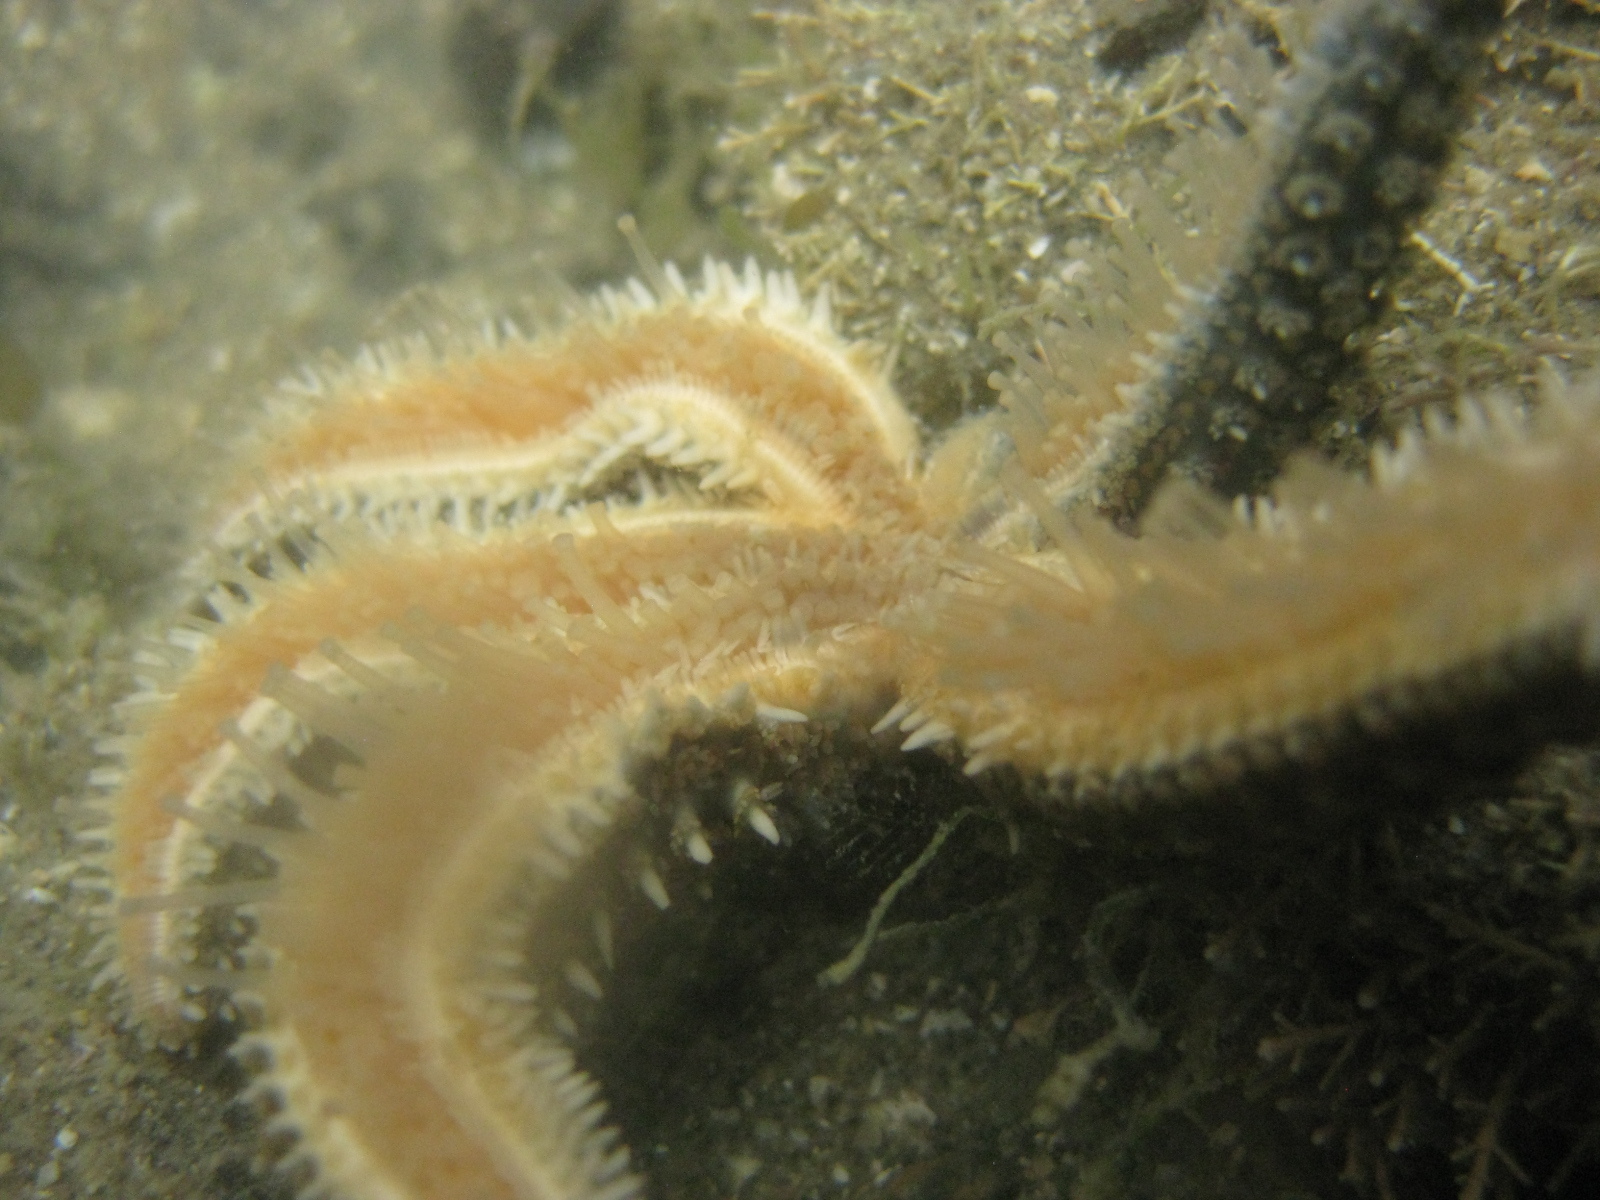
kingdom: Animalia
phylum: Echinodermata
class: Asteroidea
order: Forcipulatida
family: Asteriidae
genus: Coscinasterias
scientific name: Coscinasterias muricata
